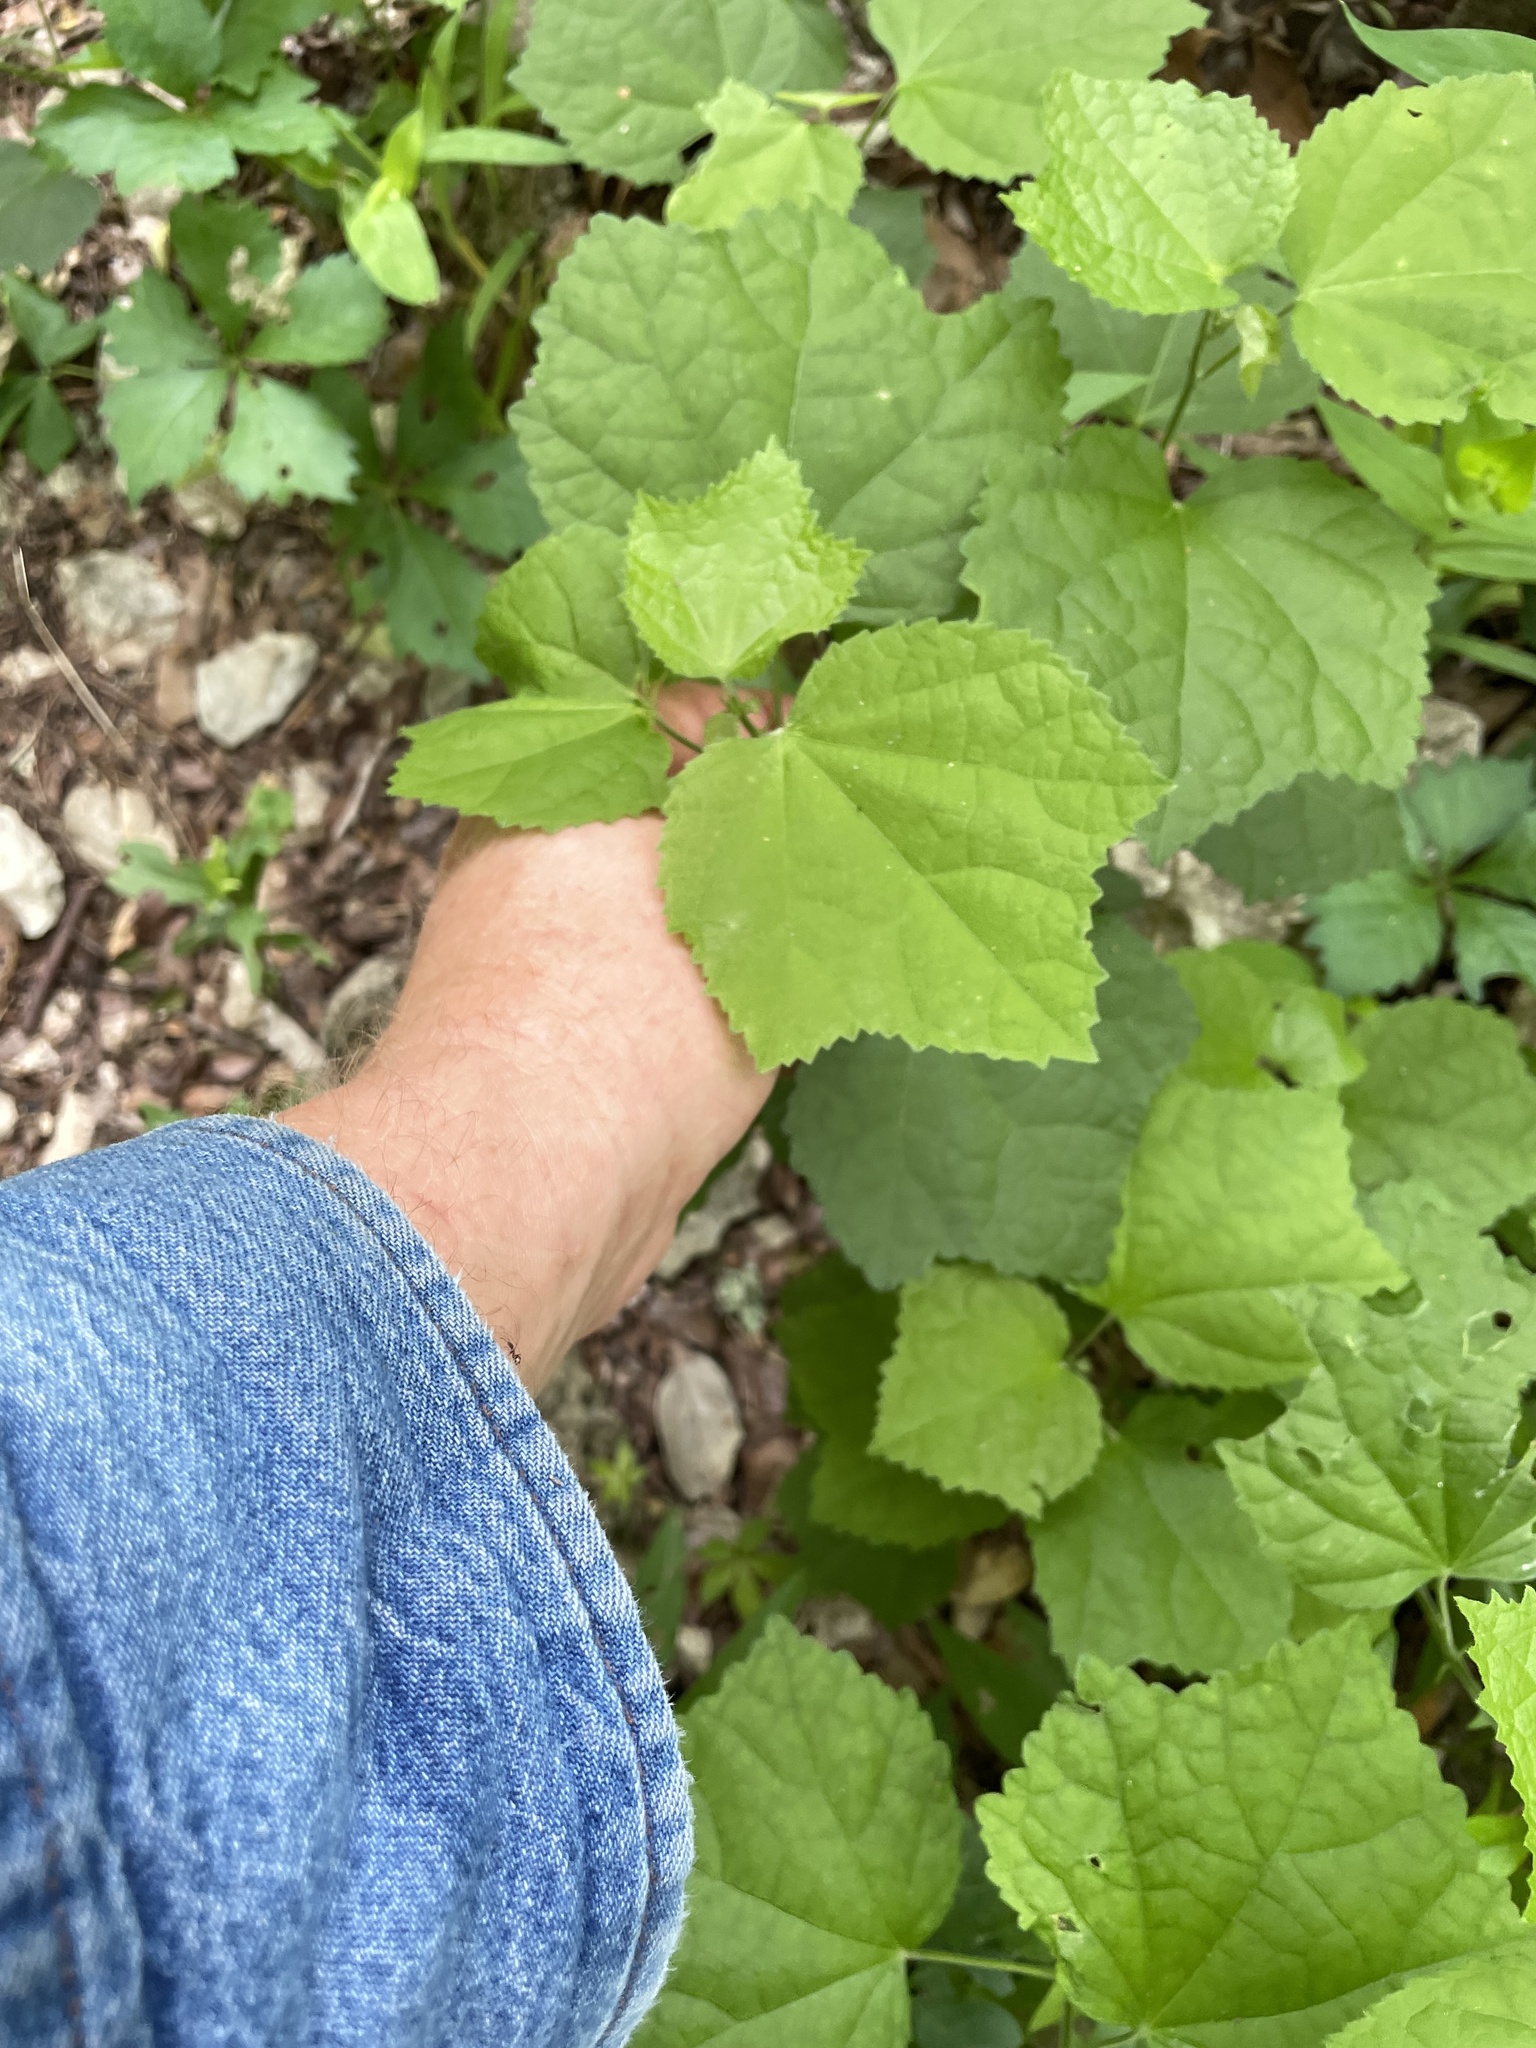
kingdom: Plantae
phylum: Tracheophyta
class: Magnoliopsida
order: Malvales
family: Malvaceae
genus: Malvaviscus
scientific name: Malvaviscus arboreus
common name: Wax mallow
